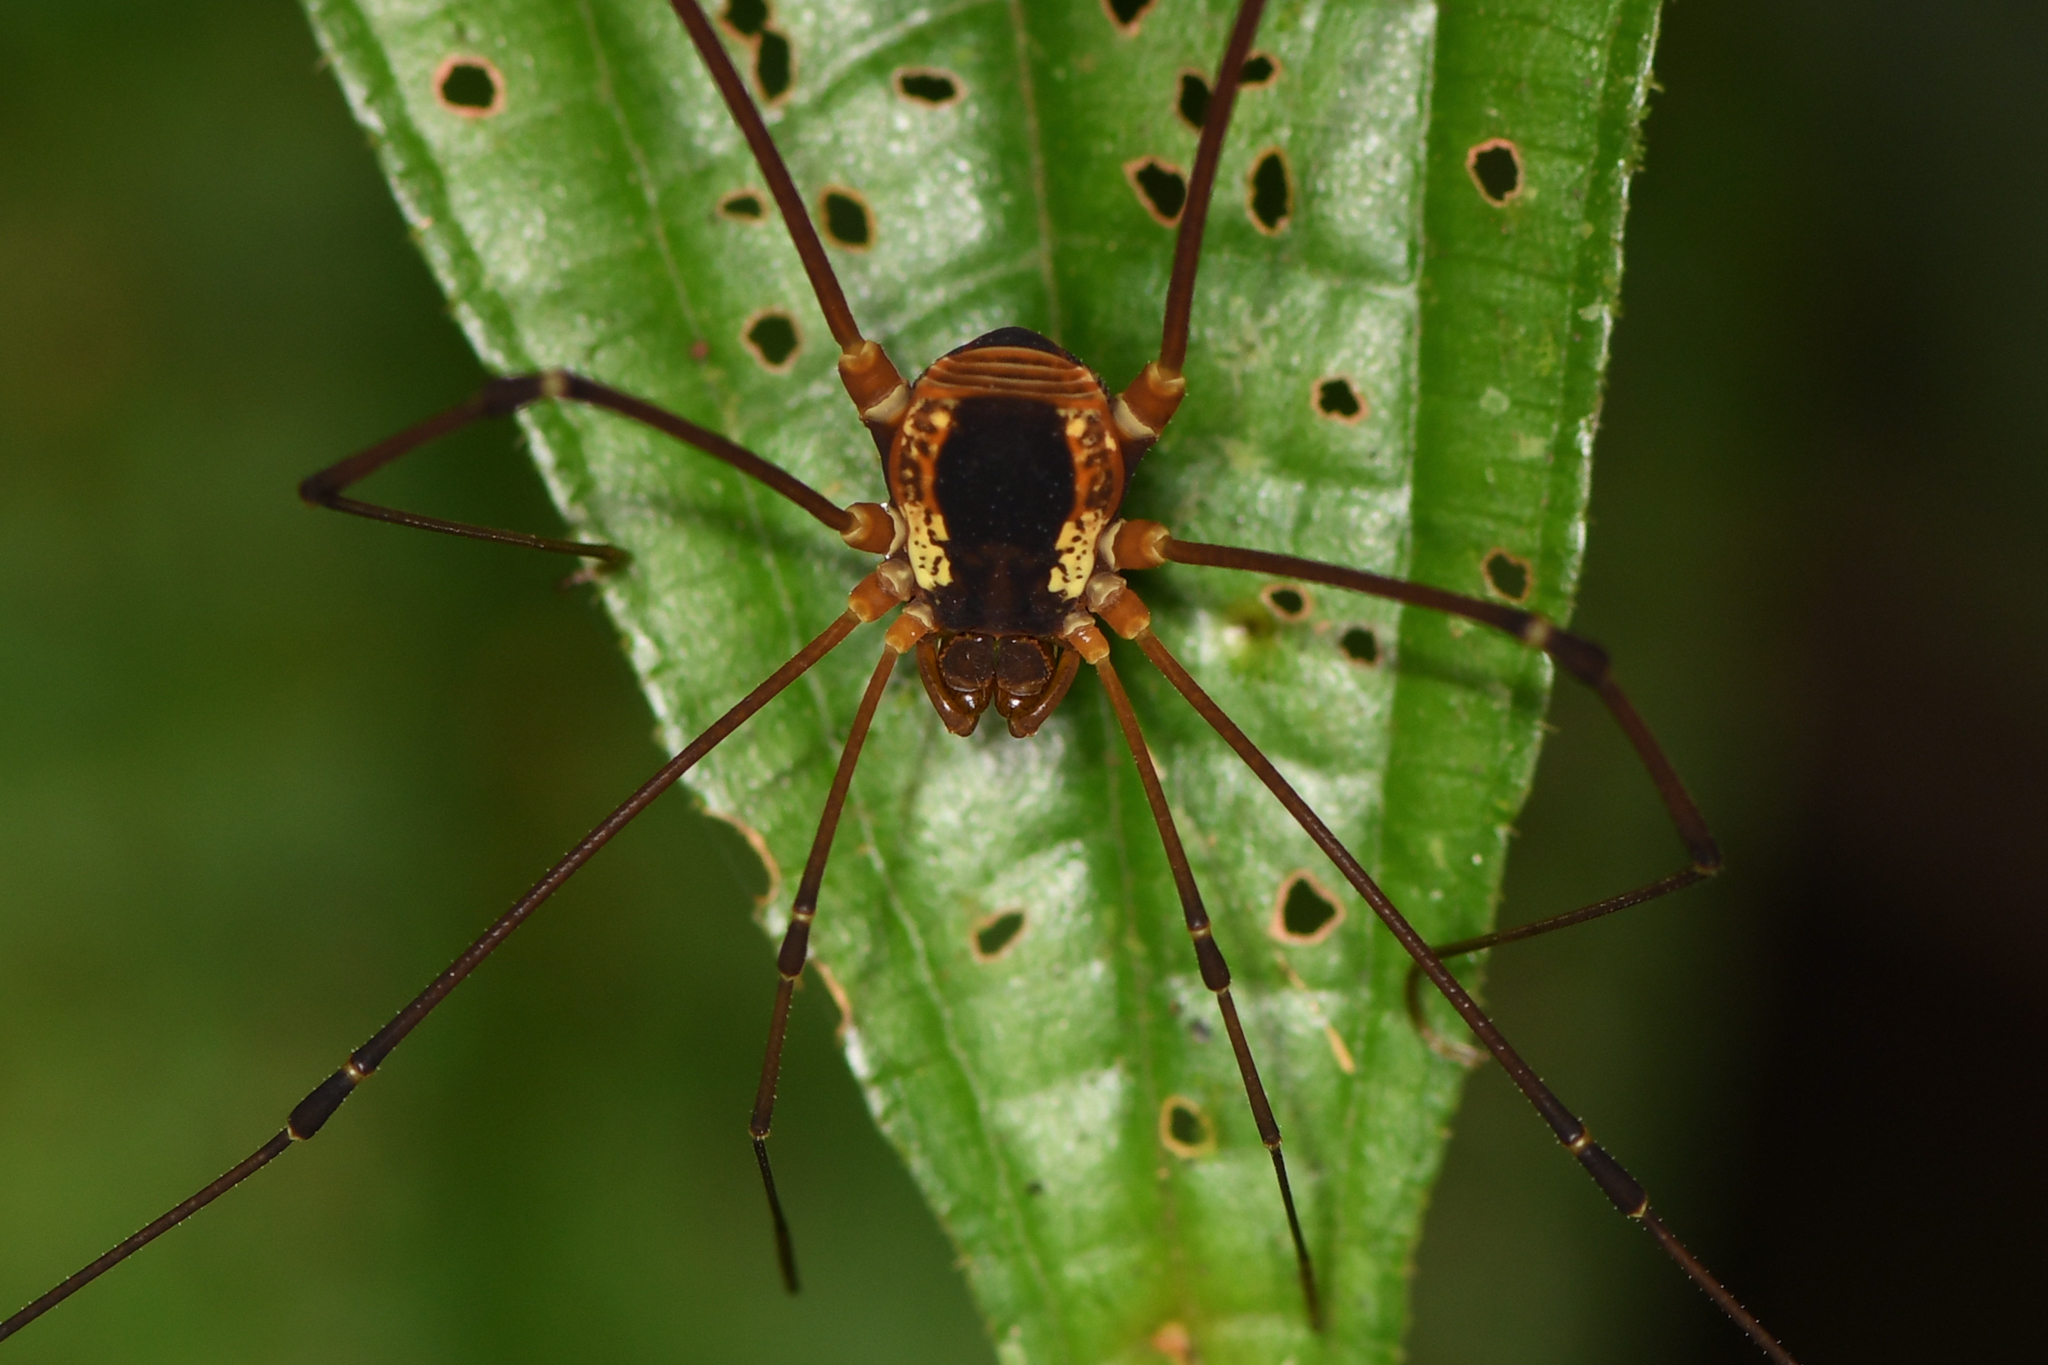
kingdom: Animalia
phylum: Arthropoda
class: Arachnida
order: Opiliones
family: Cosmetidae
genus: Poecilaemula
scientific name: Poecilaemula signata
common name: Harvestmen
